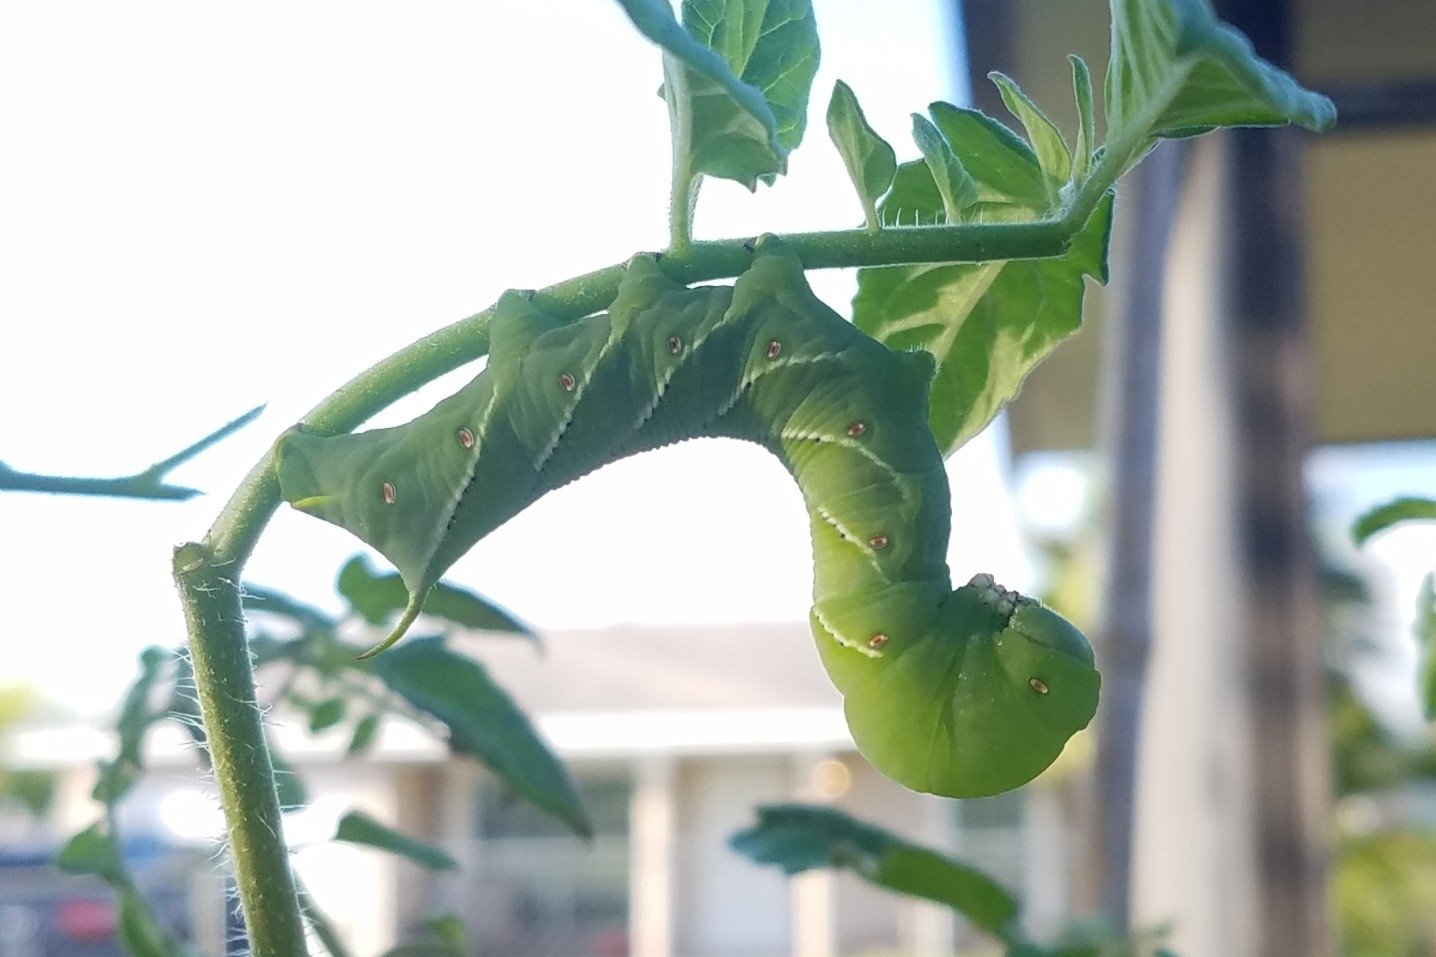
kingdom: Animalia
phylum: Arthropoda
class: Insecta
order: Lepidoptera
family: Sphingidae
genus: Manduca
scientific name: Manduca sexta
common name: Carolina sphinx
